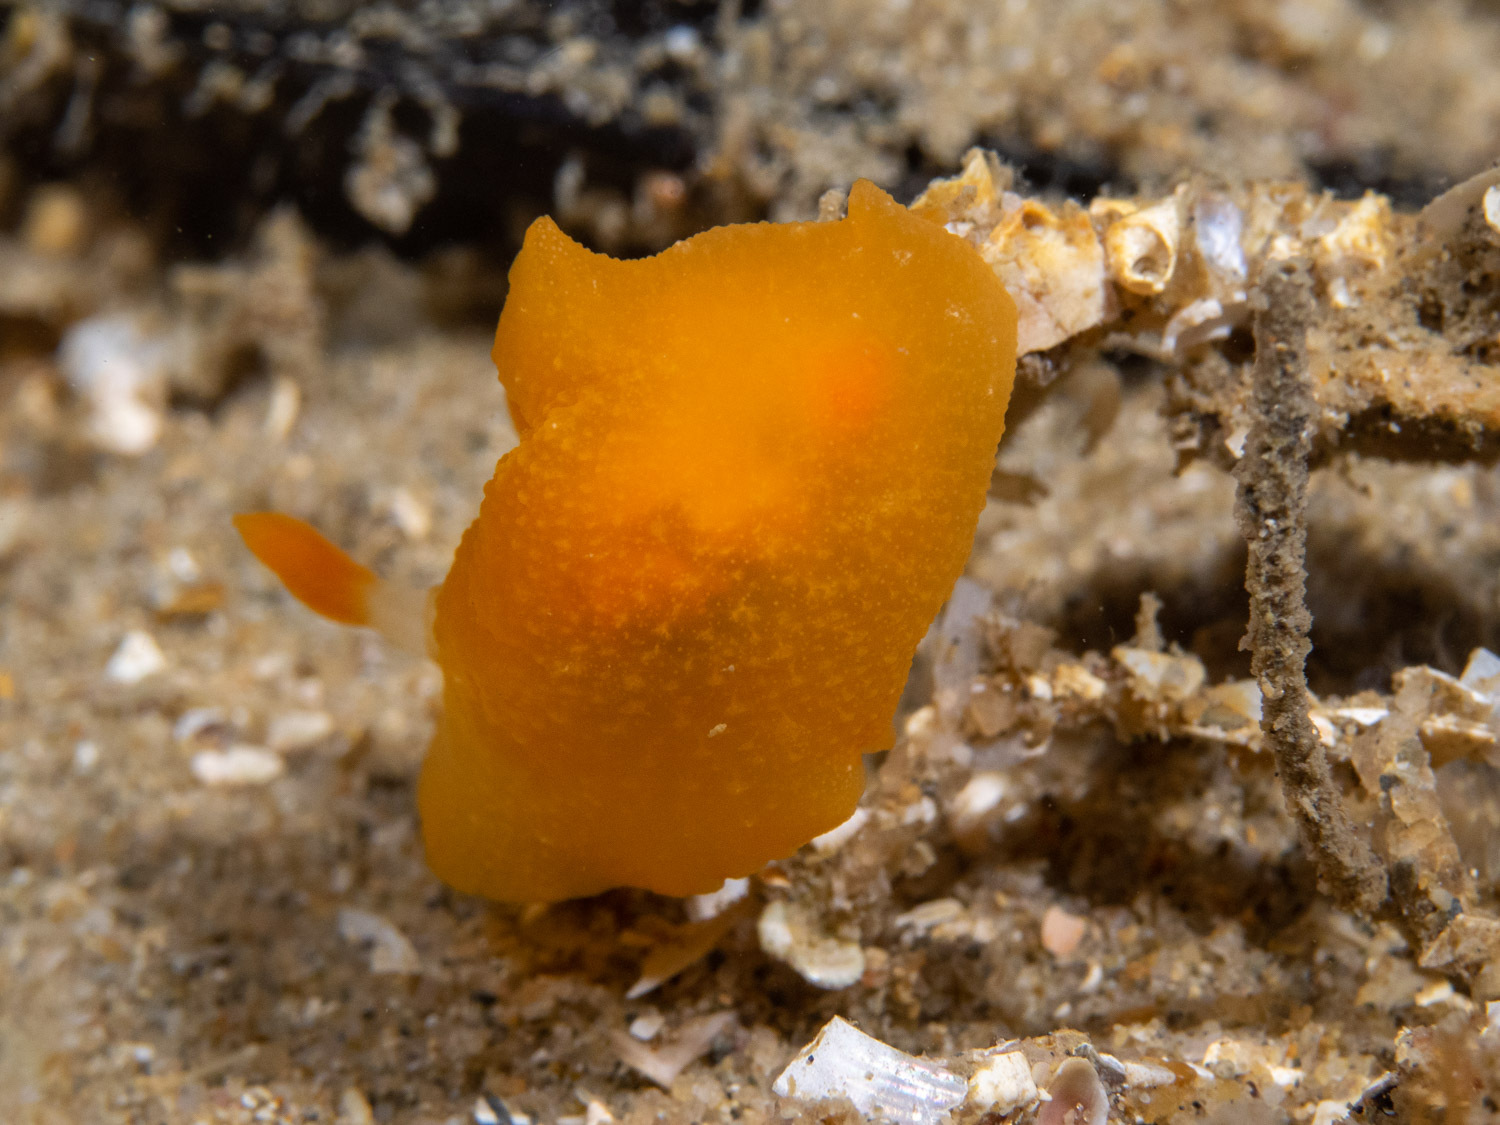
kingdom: Animalia
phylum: Mollusca
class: Gastropoda
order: Nudibranchia
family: Dendrodorididae
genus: Doriopsilla
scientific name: Doriopsilla carneola
